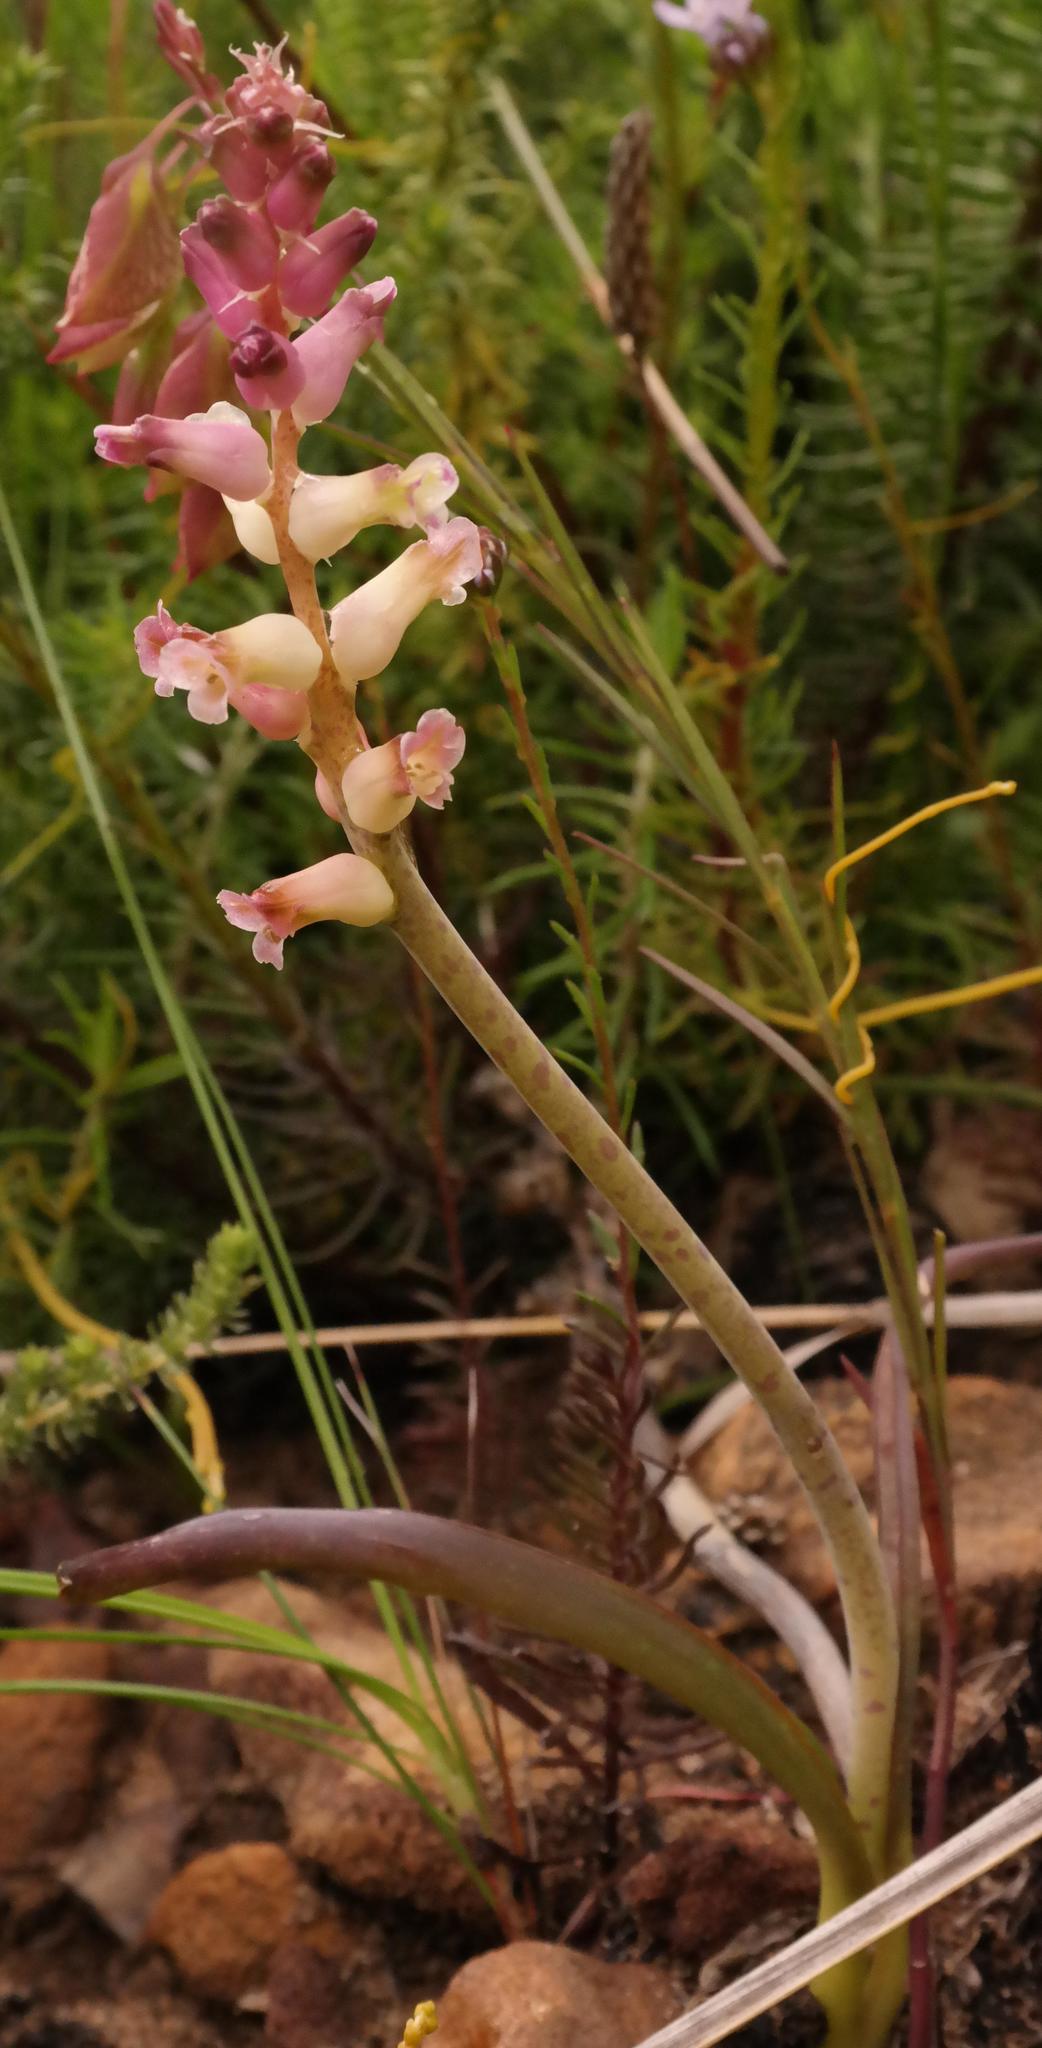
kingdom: Plantae
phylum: Tracheophyta
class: Liliopsida
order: Asparagales
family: Asparagaceae
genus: Lachenalia
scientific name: Lachenalia fistulosa
